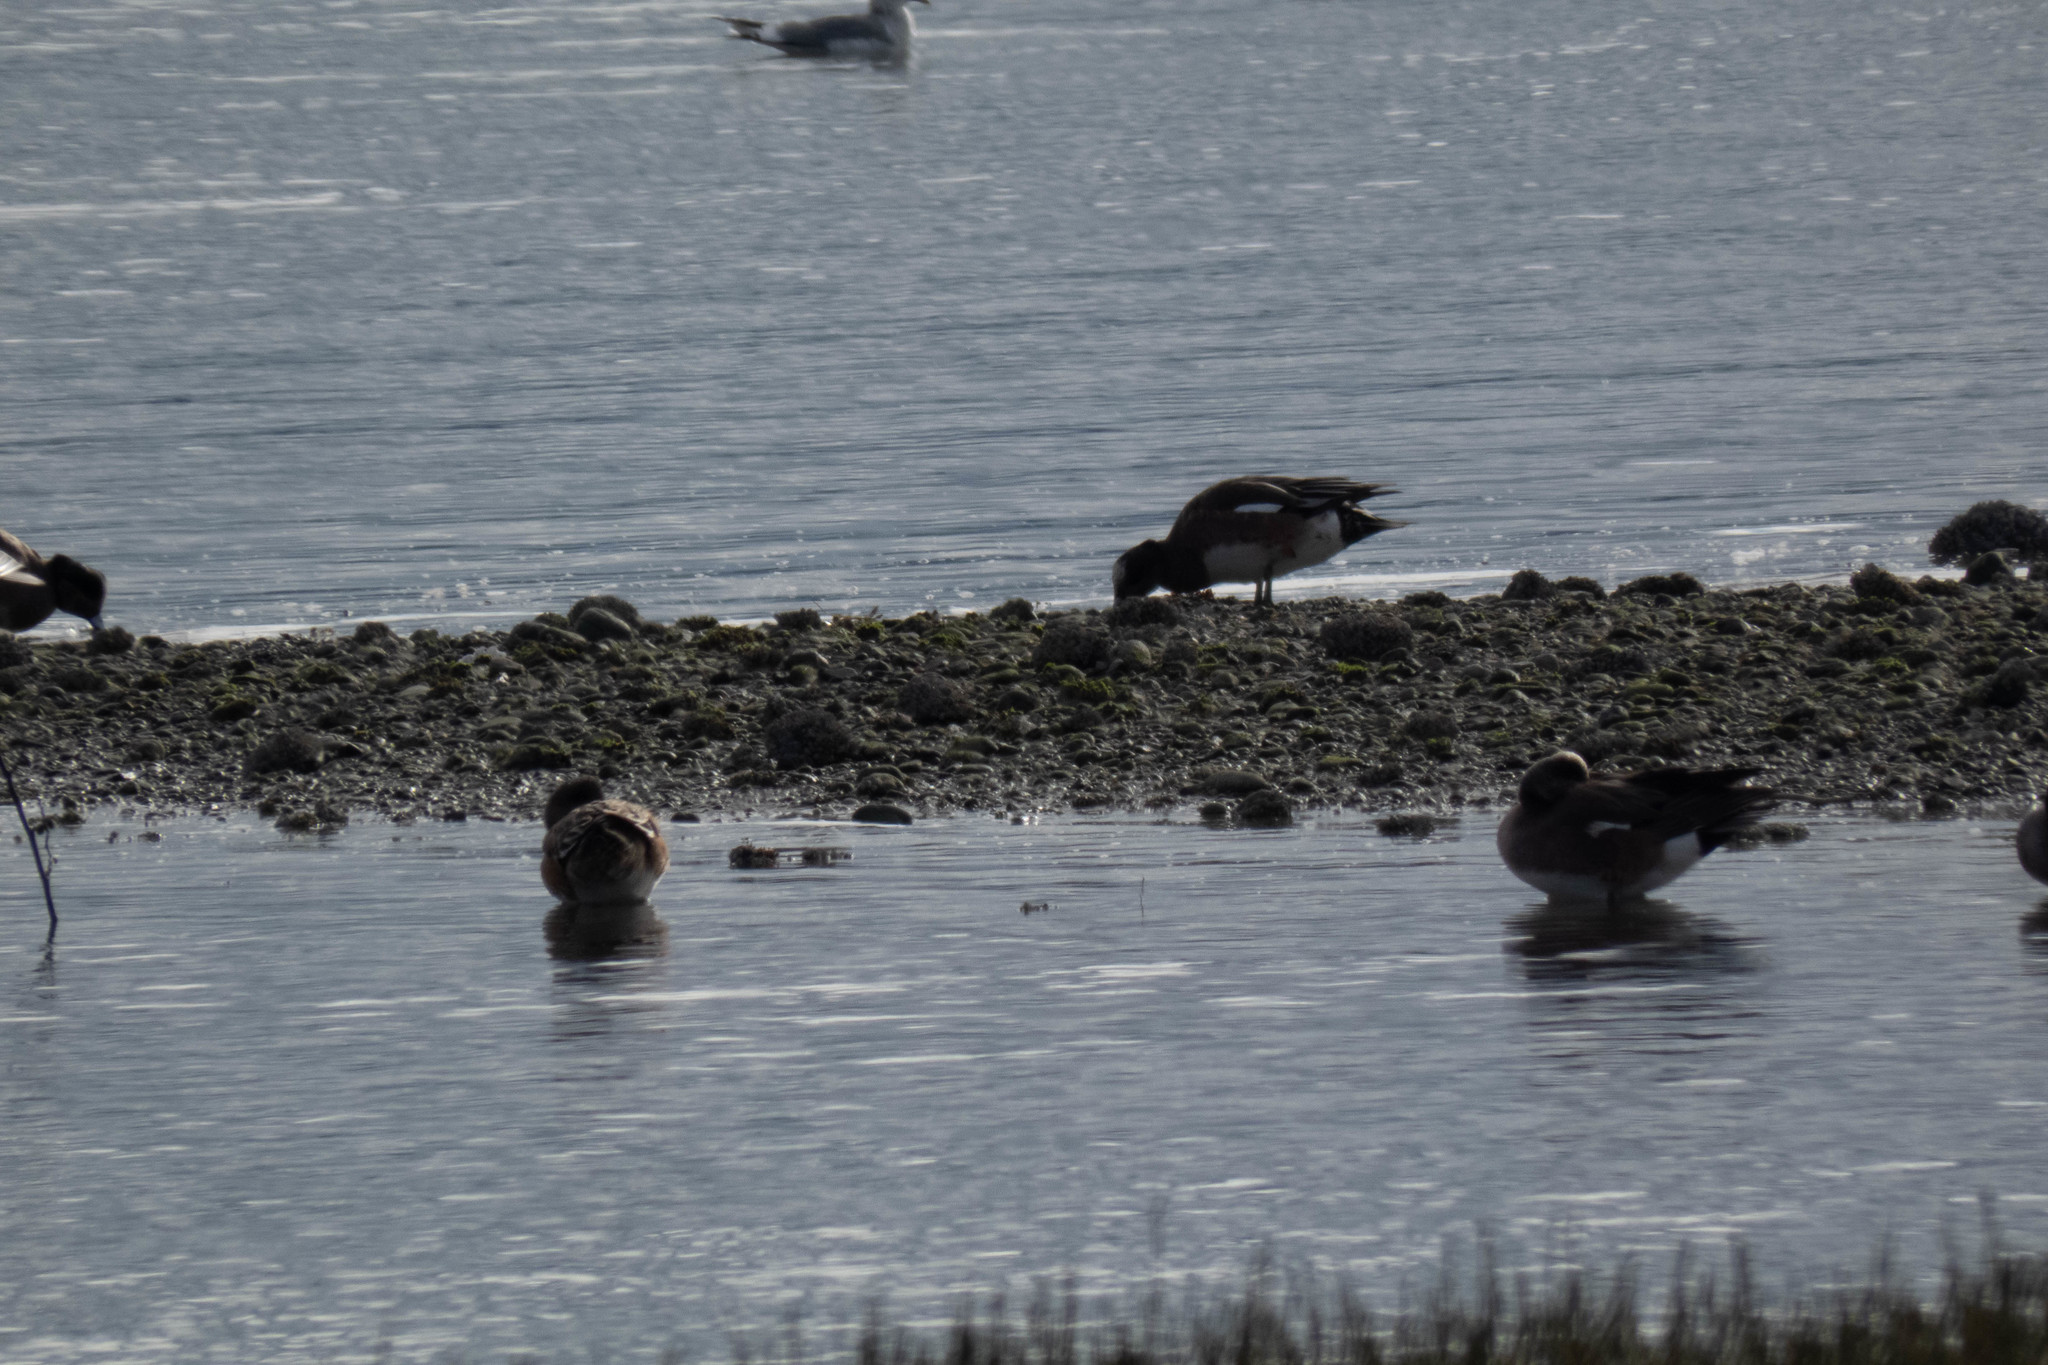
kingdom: Animalia
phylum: Chordata
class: Aves
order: Anseriformes
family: Anatidae
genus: Mareca
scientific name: Mareca americana
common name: American wigeon
